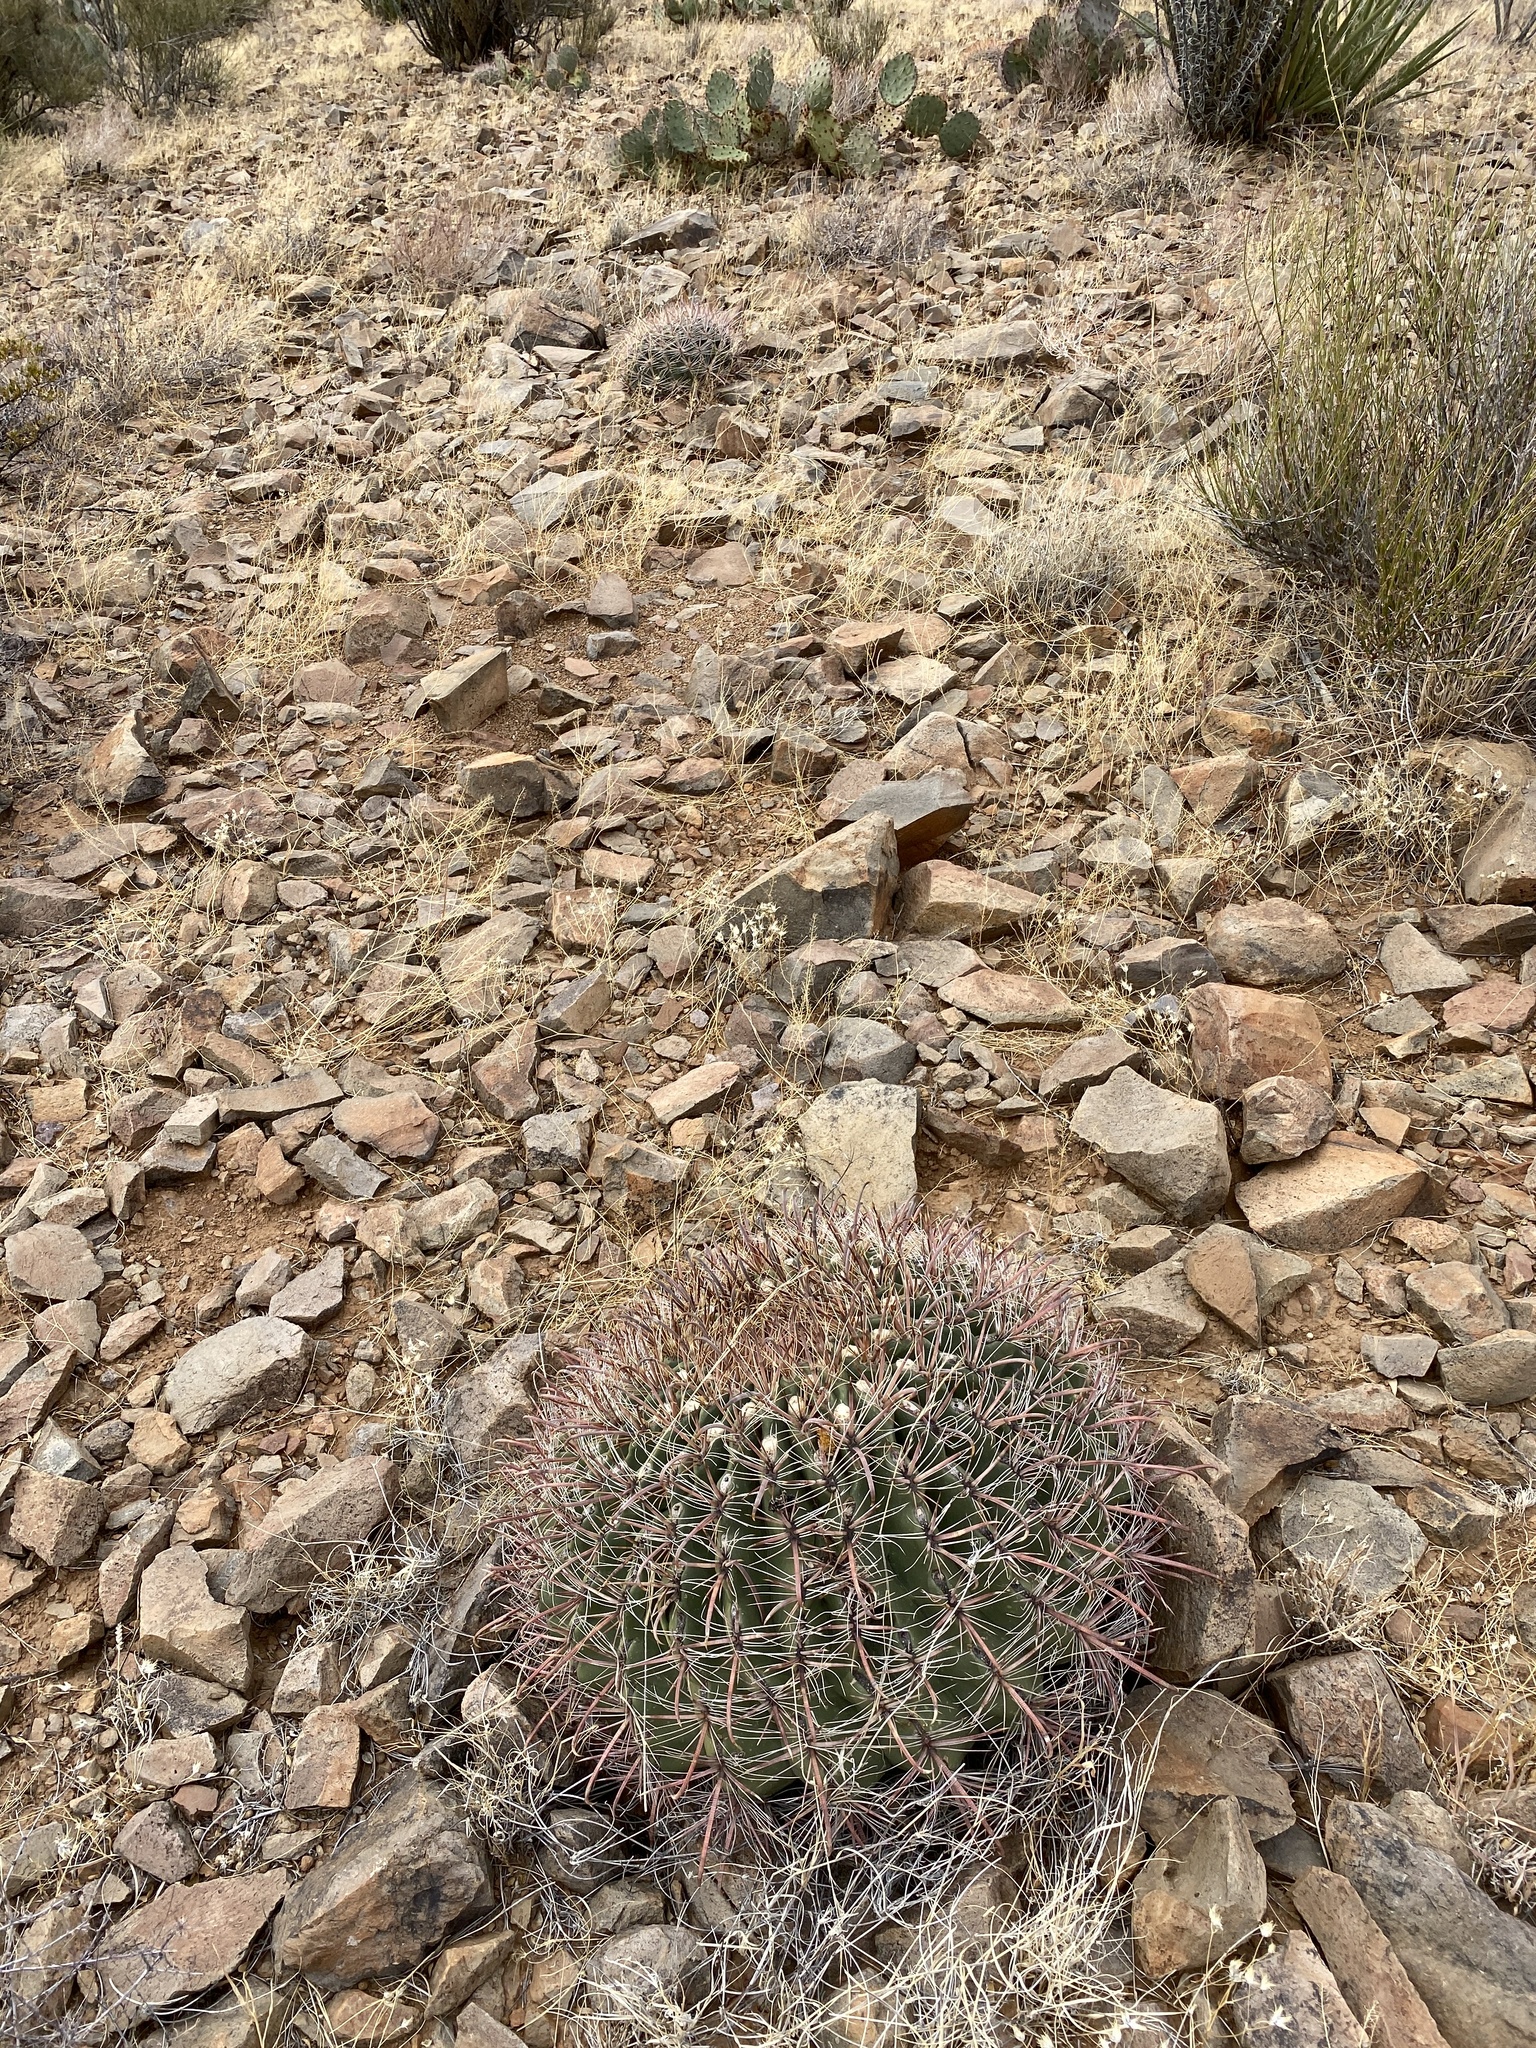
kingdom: Plantae
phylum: Tracheophyta
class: Magnoliopsida
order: Caryophyllales
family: Cactaceae
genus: Ferocactus
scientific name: Ferocactus wislizeni
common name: Candy barrel cactus
